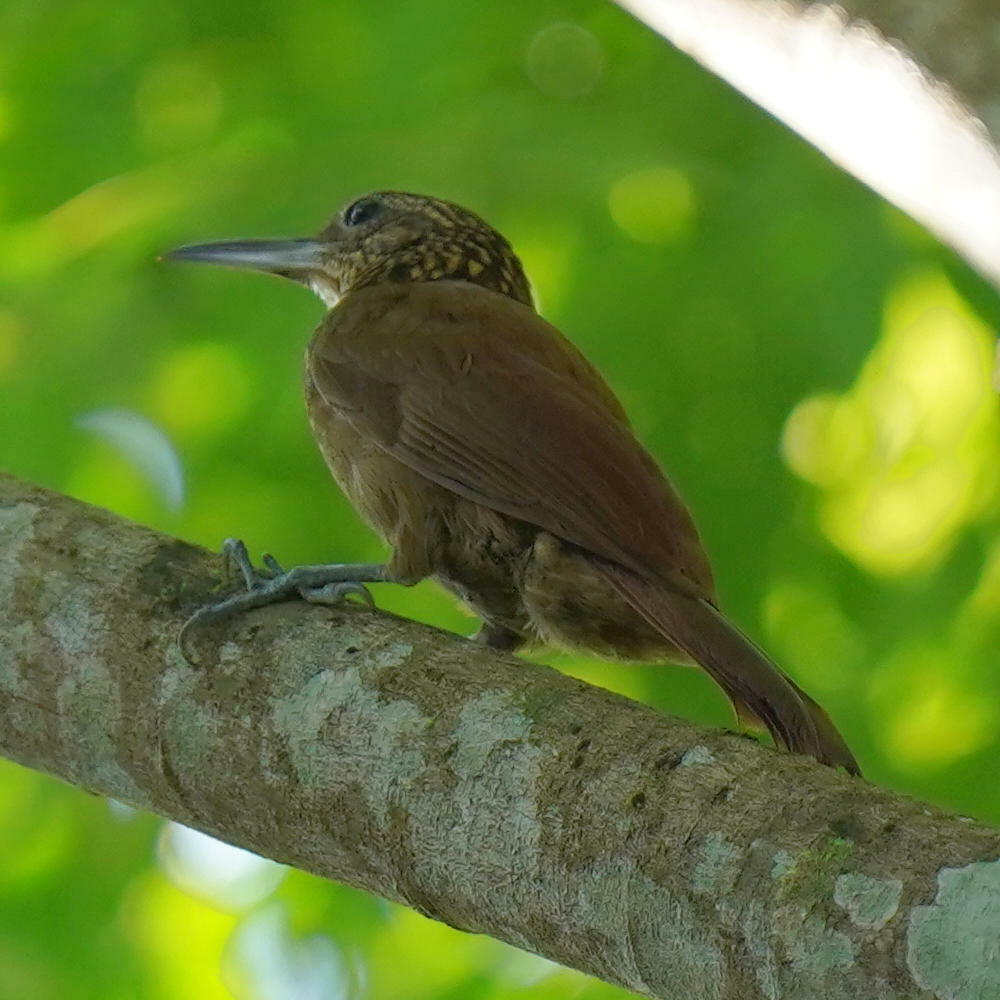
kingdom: Animalia
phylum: Chordata
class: Aves
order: Passeriformes
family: Furnariidae
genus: Xiphorhynchus
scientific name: Xiphorhynchus susurrans
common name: Cocoa woodcreeper
